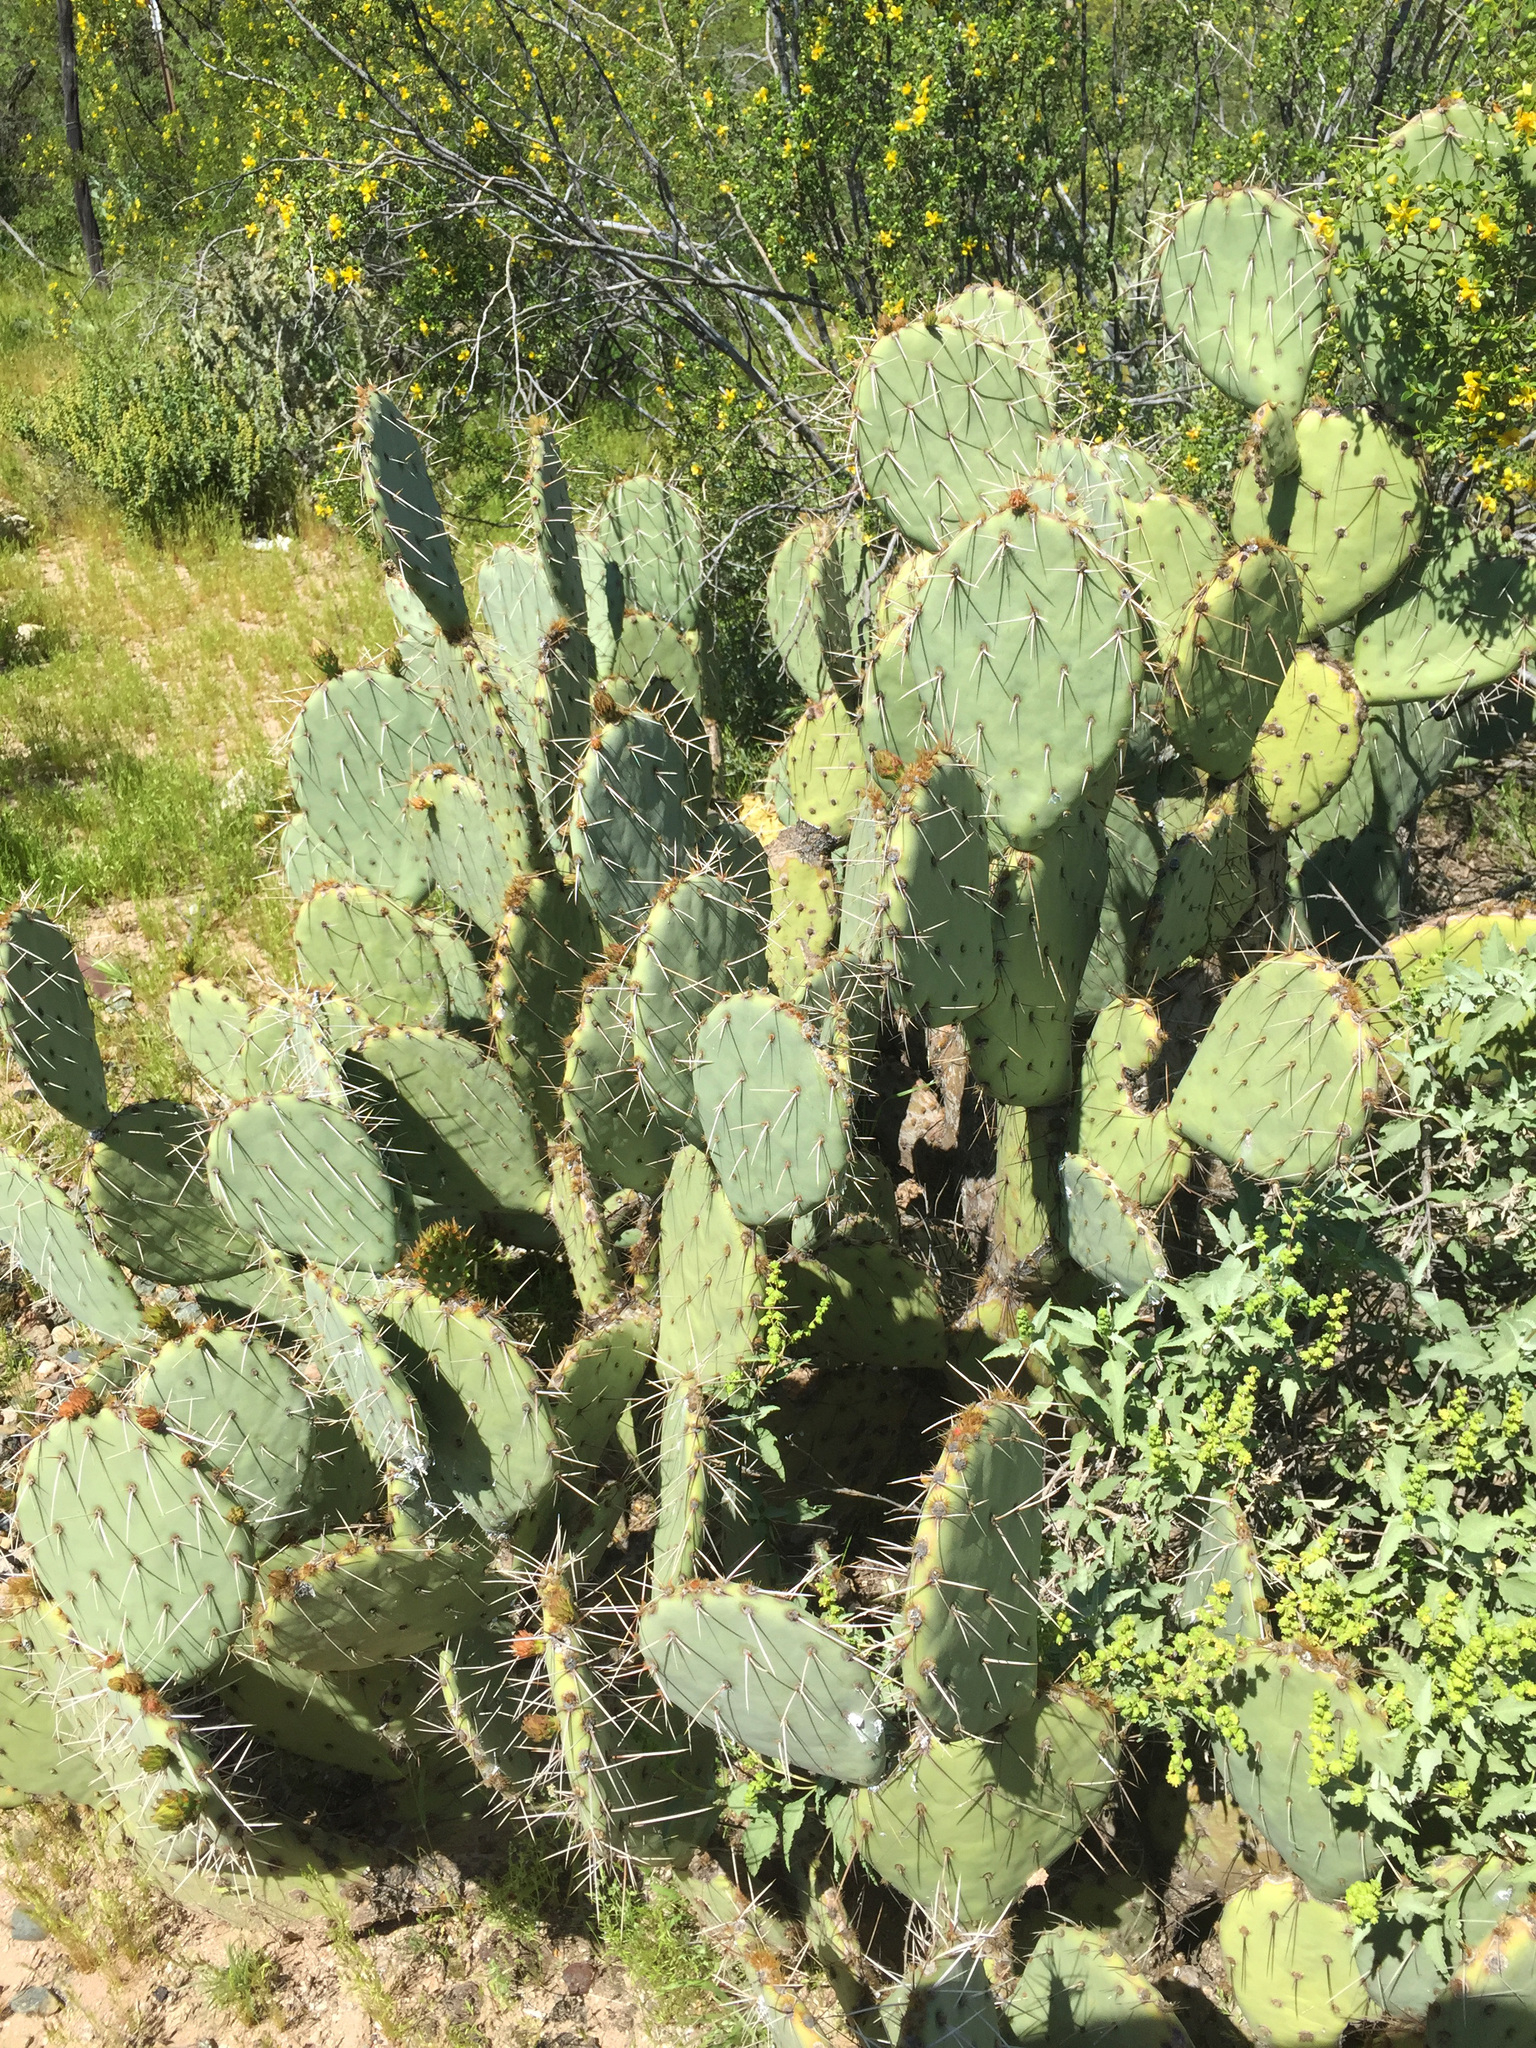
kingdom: Plantae
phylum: Tracheophyta
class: Magnoliopsida
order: Caryophyllales
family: Cactaceae
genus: Opuntia
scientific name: Opuntia engelmannii
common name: Cactus-apple
